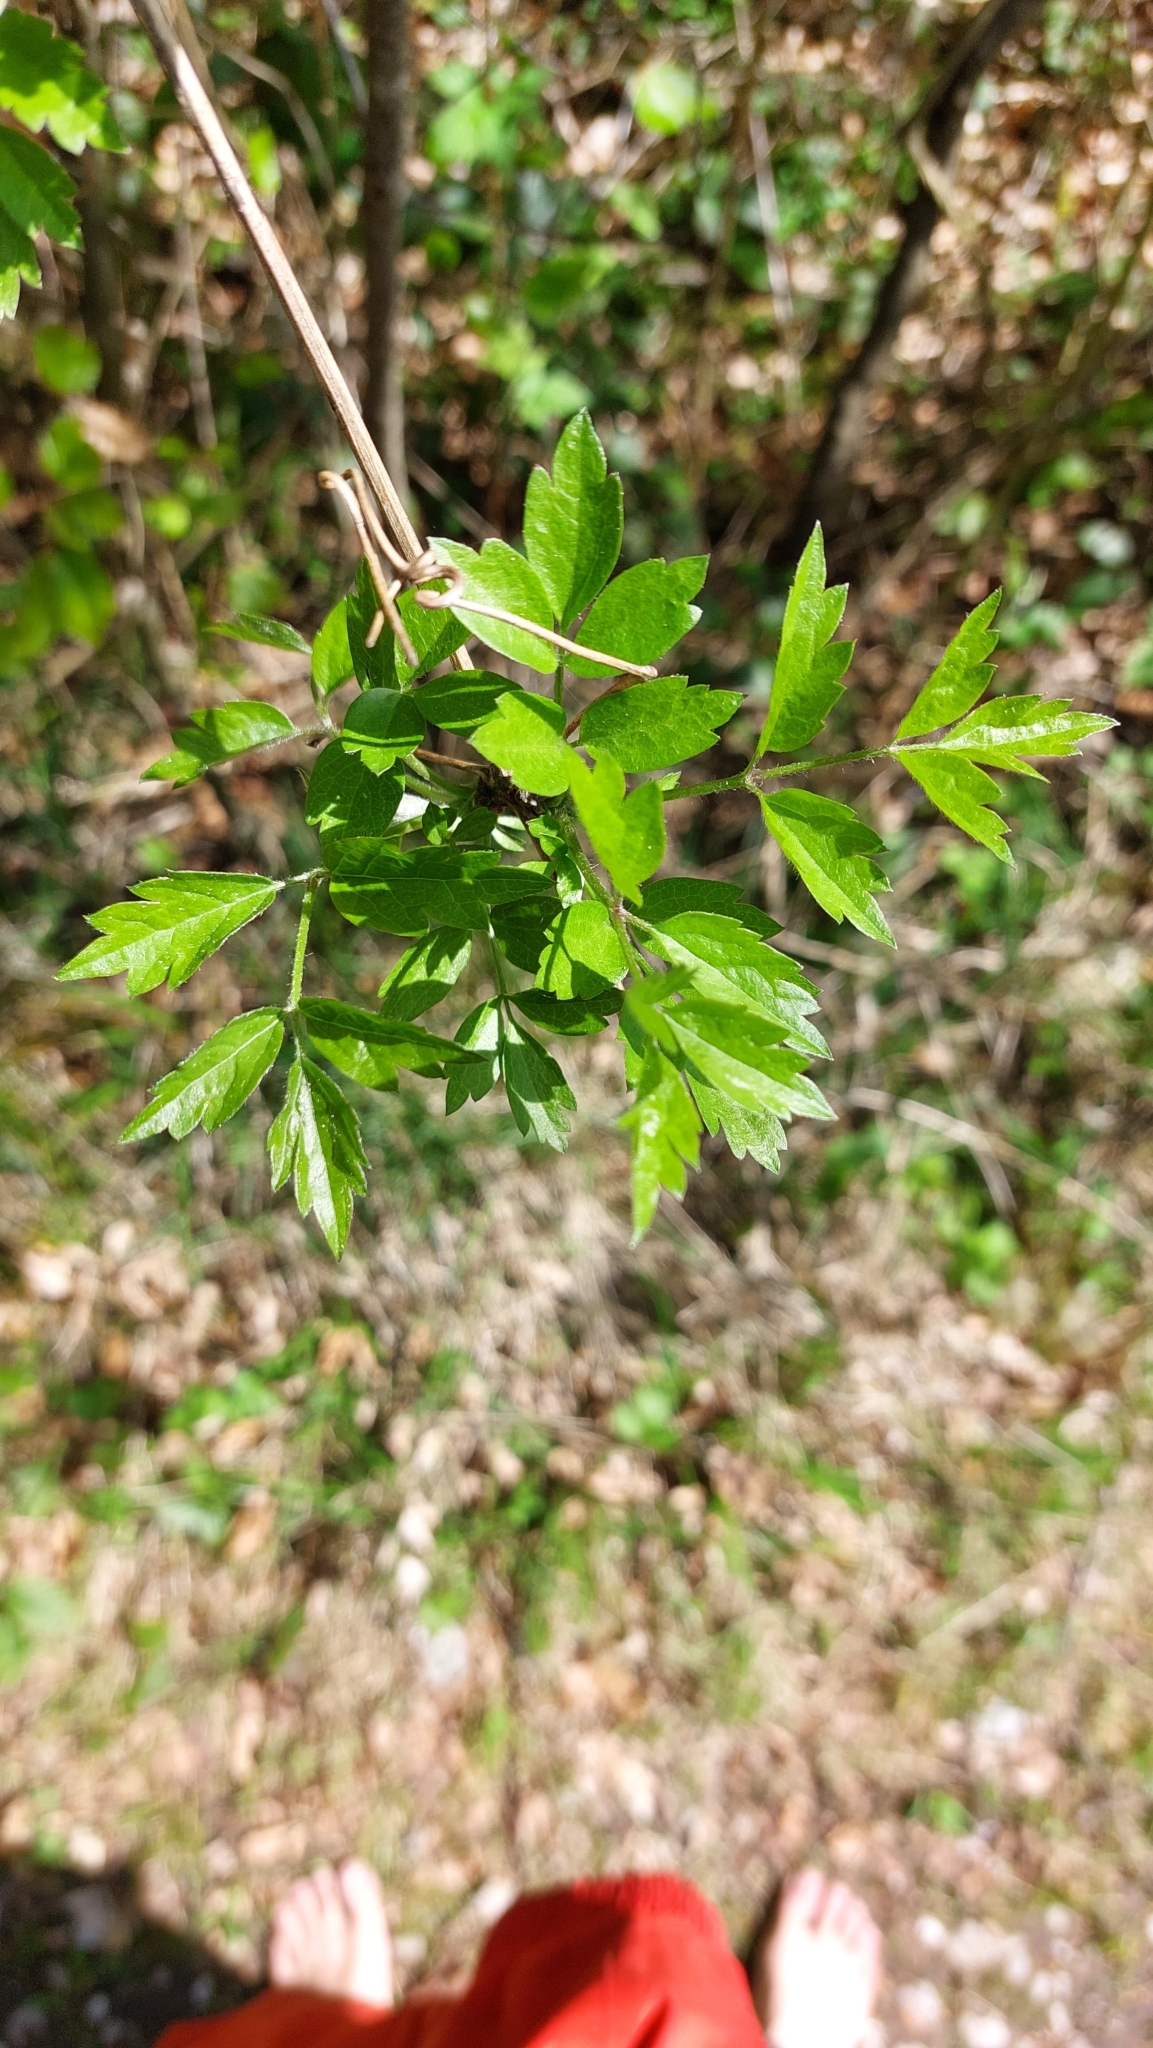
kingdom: Plantae
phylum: Tracheophyta
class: Magnoliopsida
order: Ranunculales
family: Ranunculaceae
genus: Clematis
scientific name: Clematis vitalba
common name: Evergreen clematis
